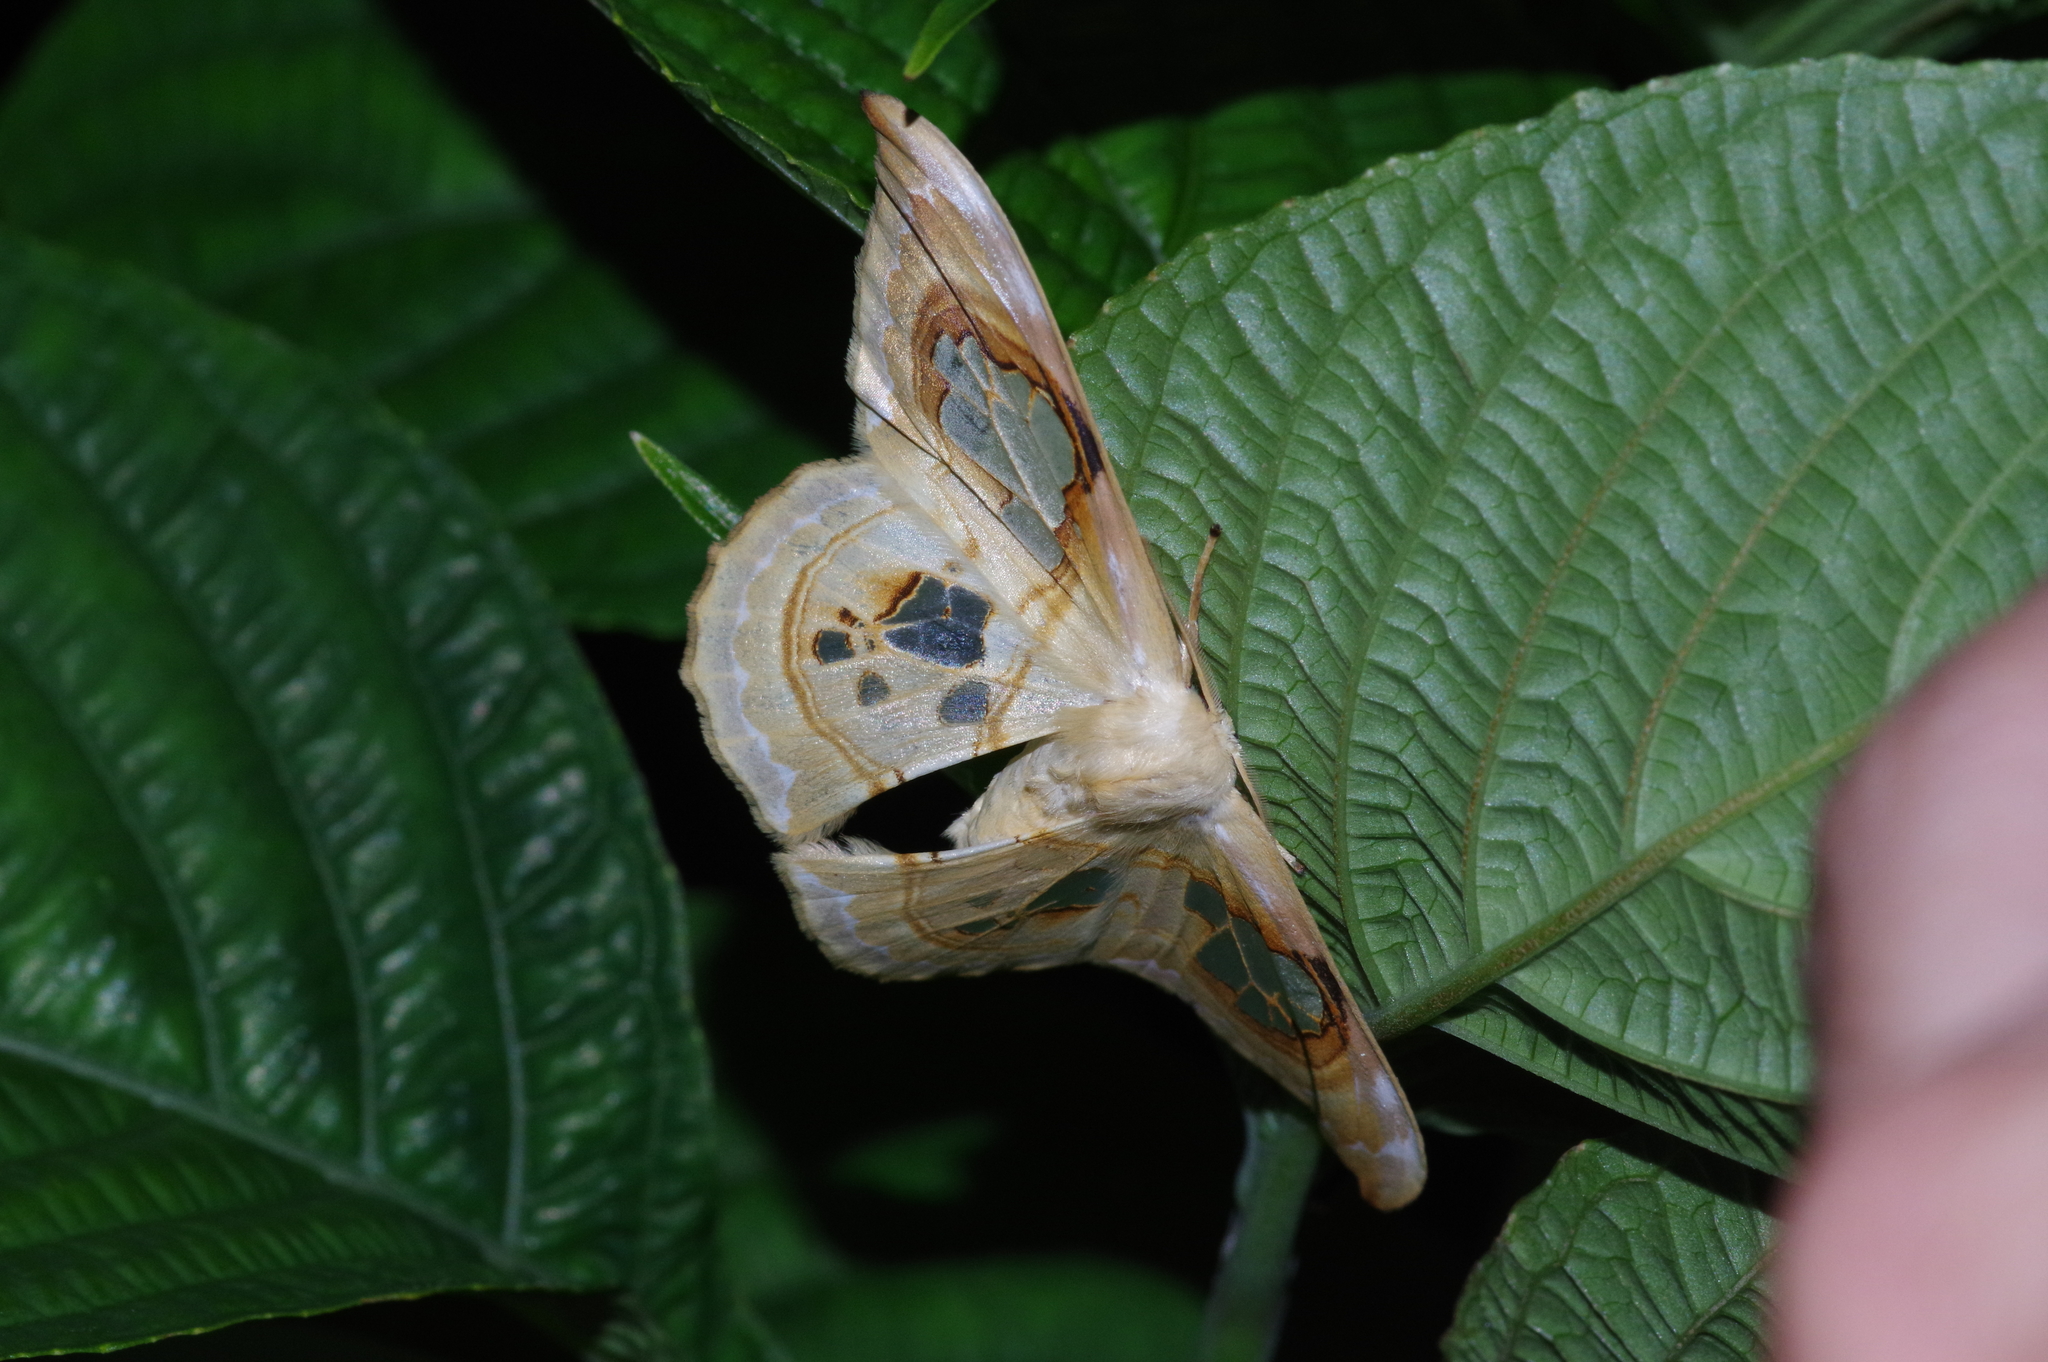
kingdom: Animalia
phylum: Arthropoda
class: Insecta
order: Lepidoptera
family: Drepanidae
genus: Macrauzata
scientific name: Macrauzata maxima
